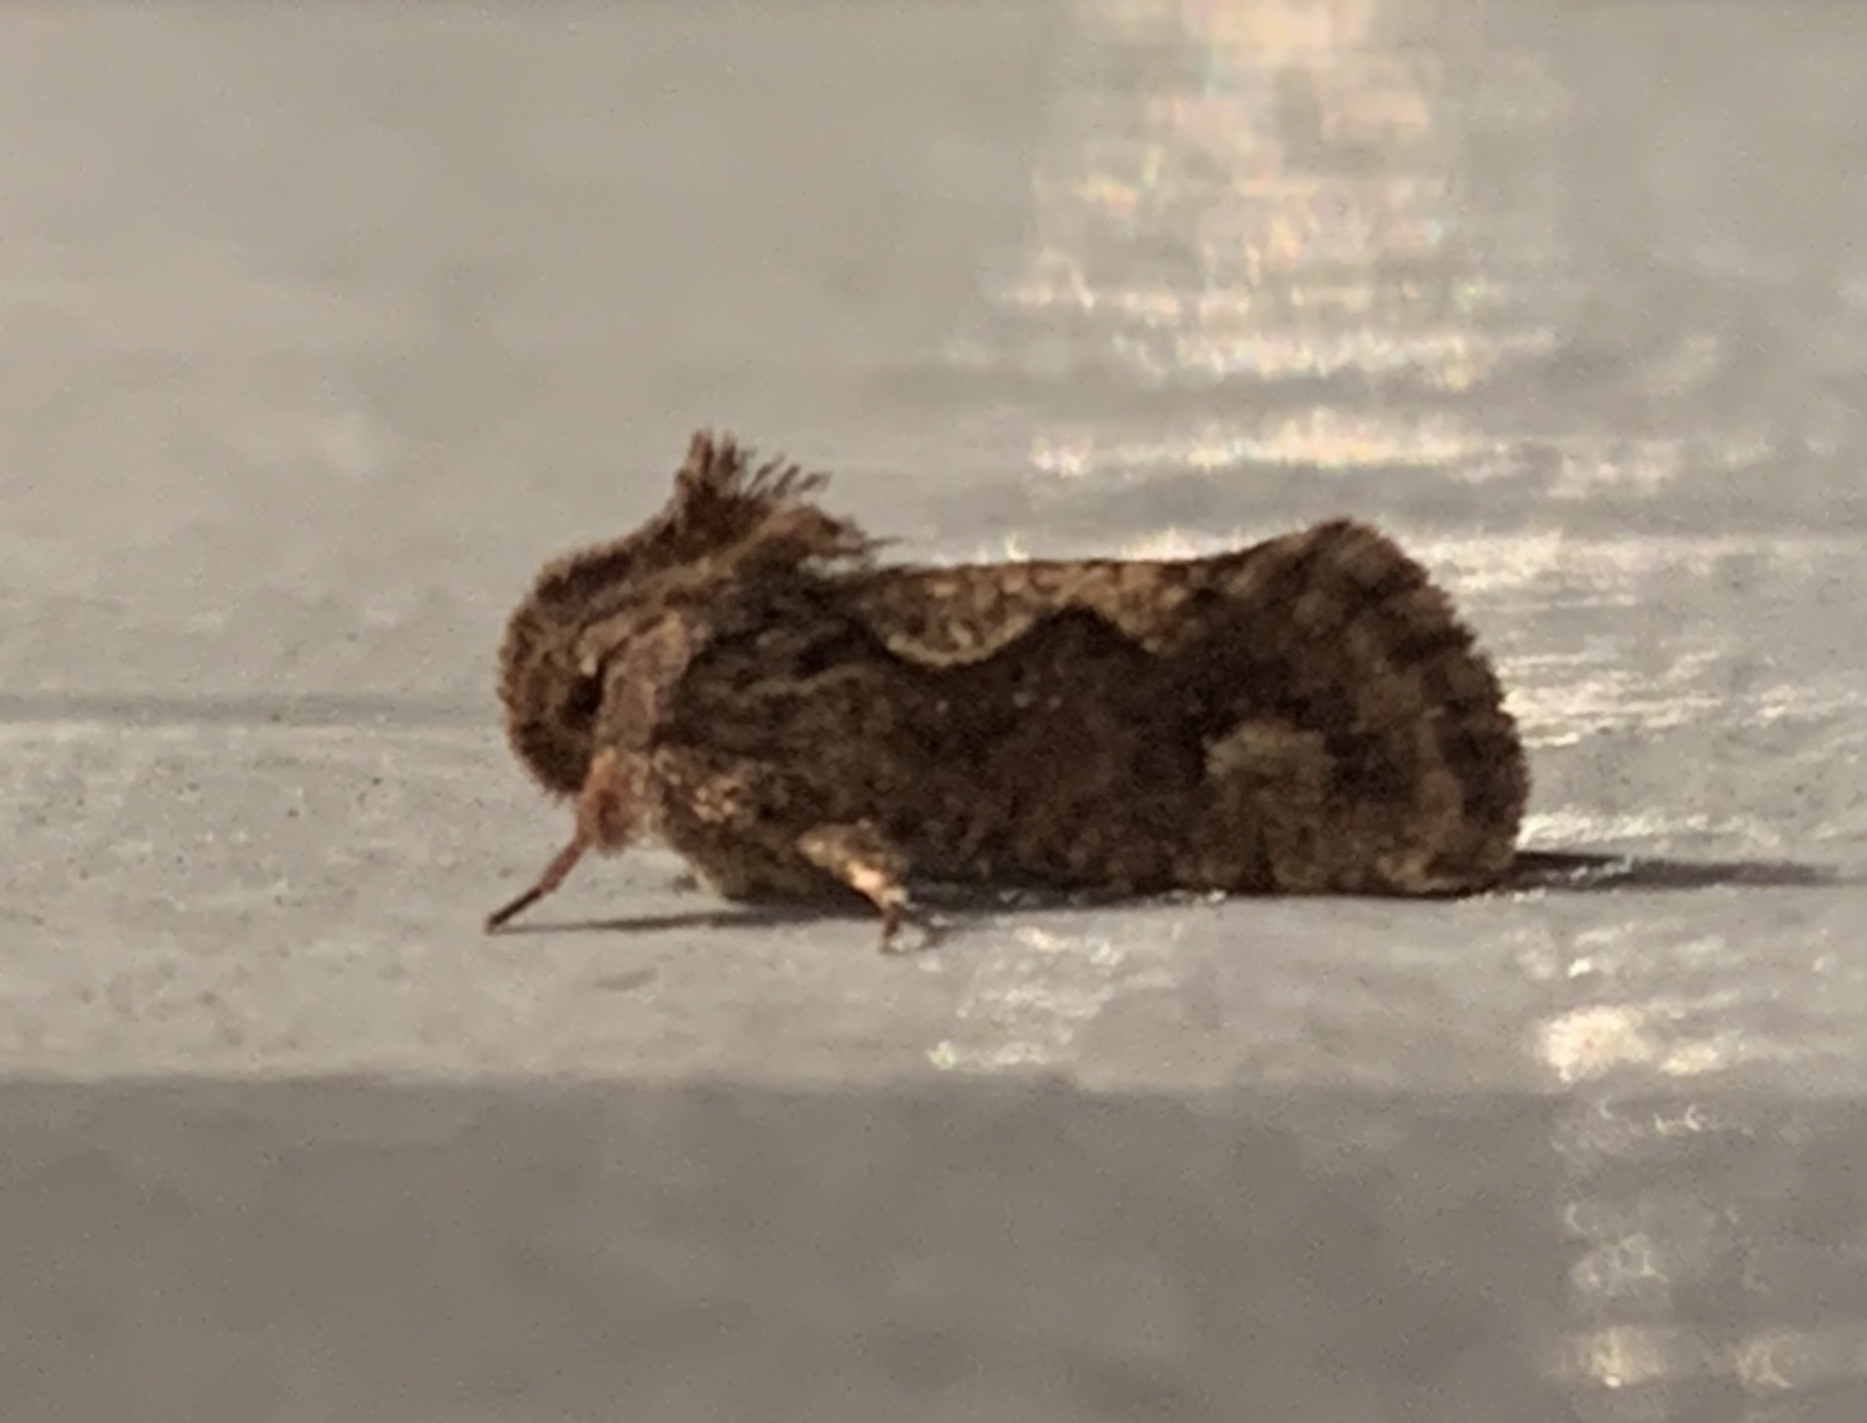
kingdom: Animalia
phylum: Arthropoda
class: Insecta
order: Lepidoptera
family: Tineidae
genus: Acrolophus
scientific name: Acrolophus walsinghami
